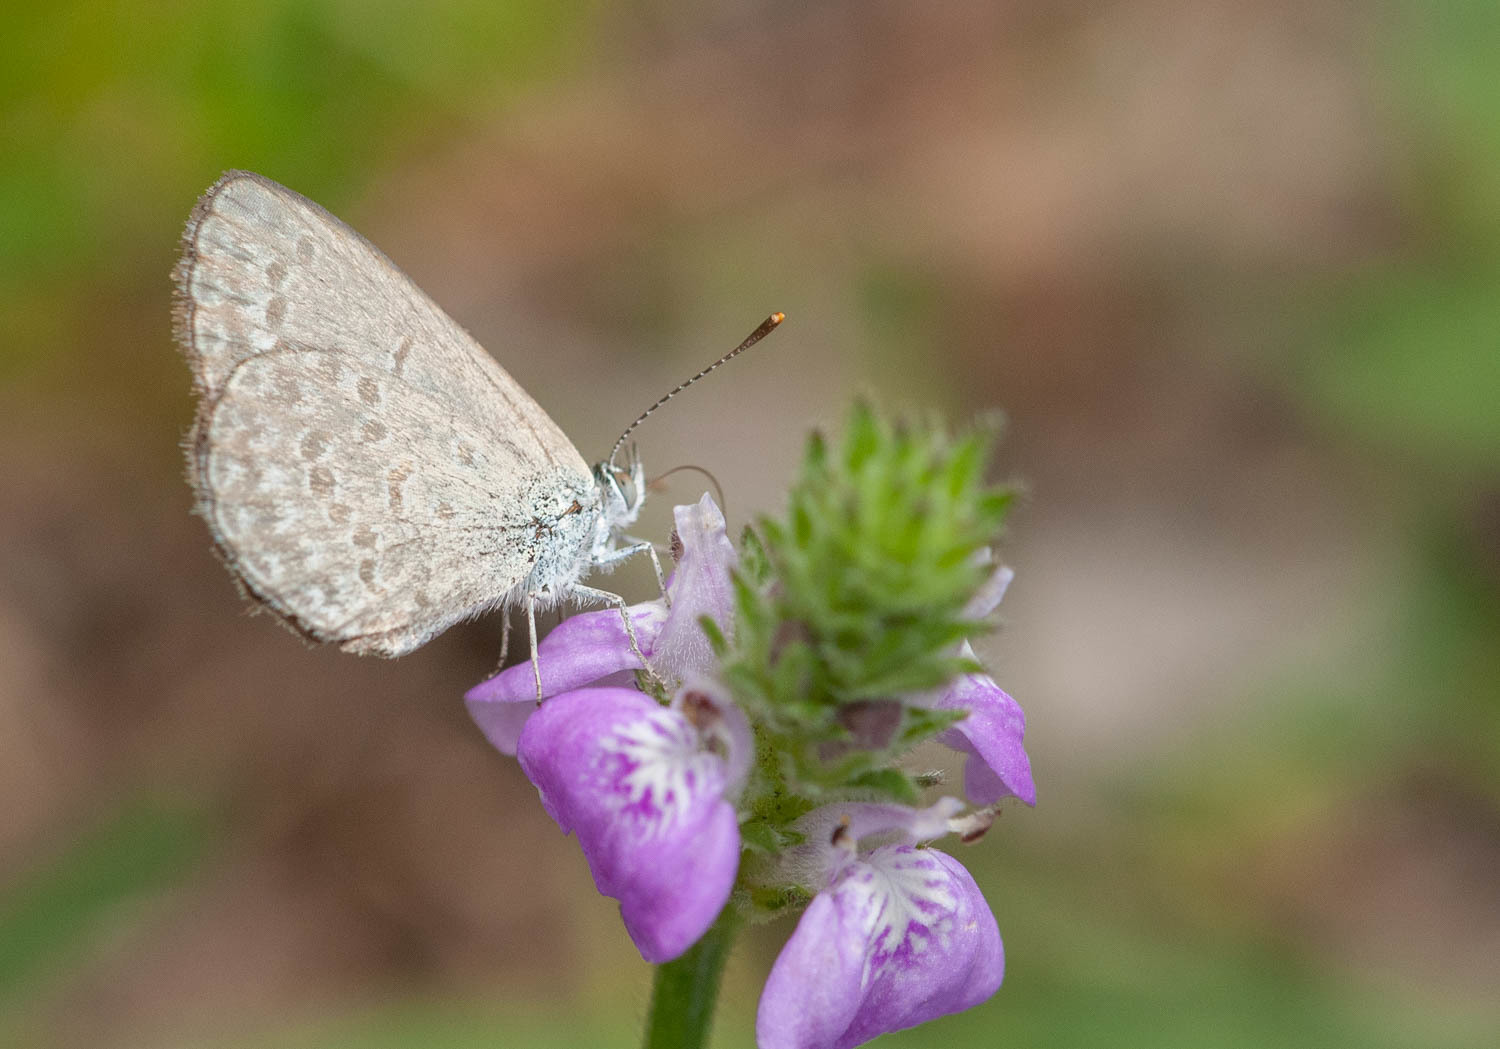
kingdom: Animalia
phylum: Arthropoda
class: Insecta
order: Lepidoptera
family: Lycaenidae
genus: Zizina
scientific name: Zizina labradus
